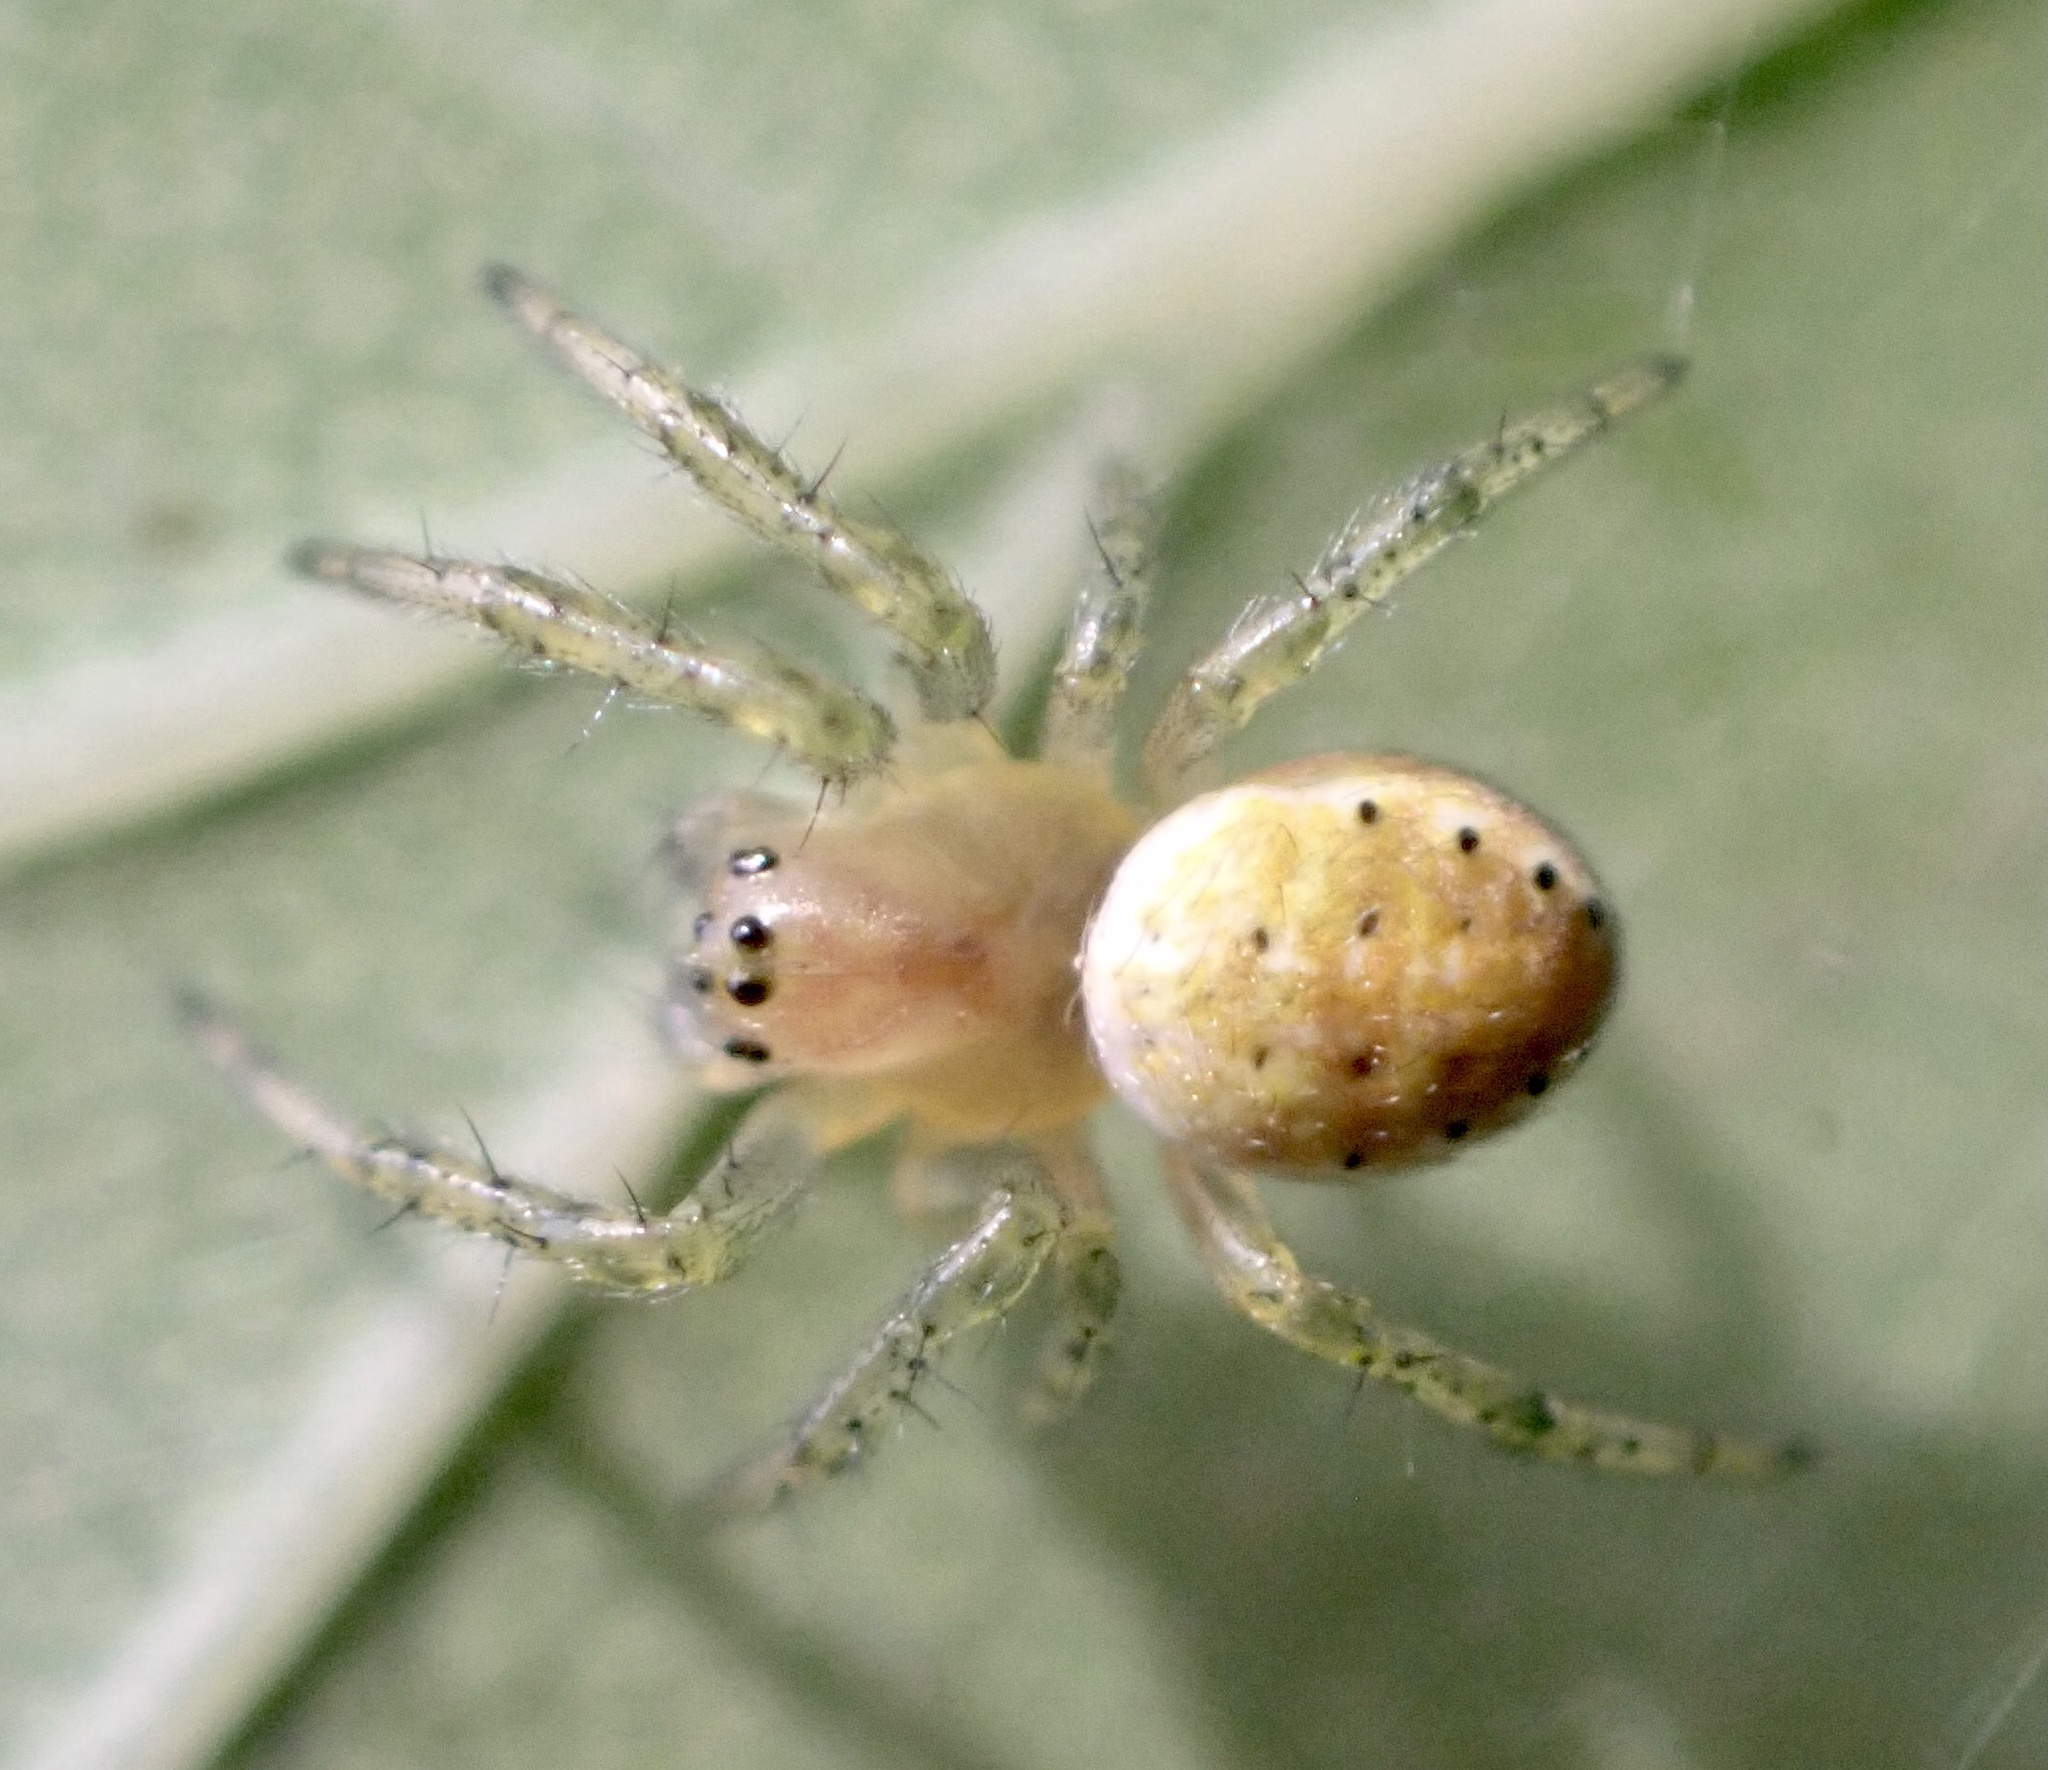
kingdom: Animalia
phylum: Arthropoda
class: Arachnida
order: Araneae
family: Araneidae
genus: Araniella
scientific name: Araniella opisthographa
